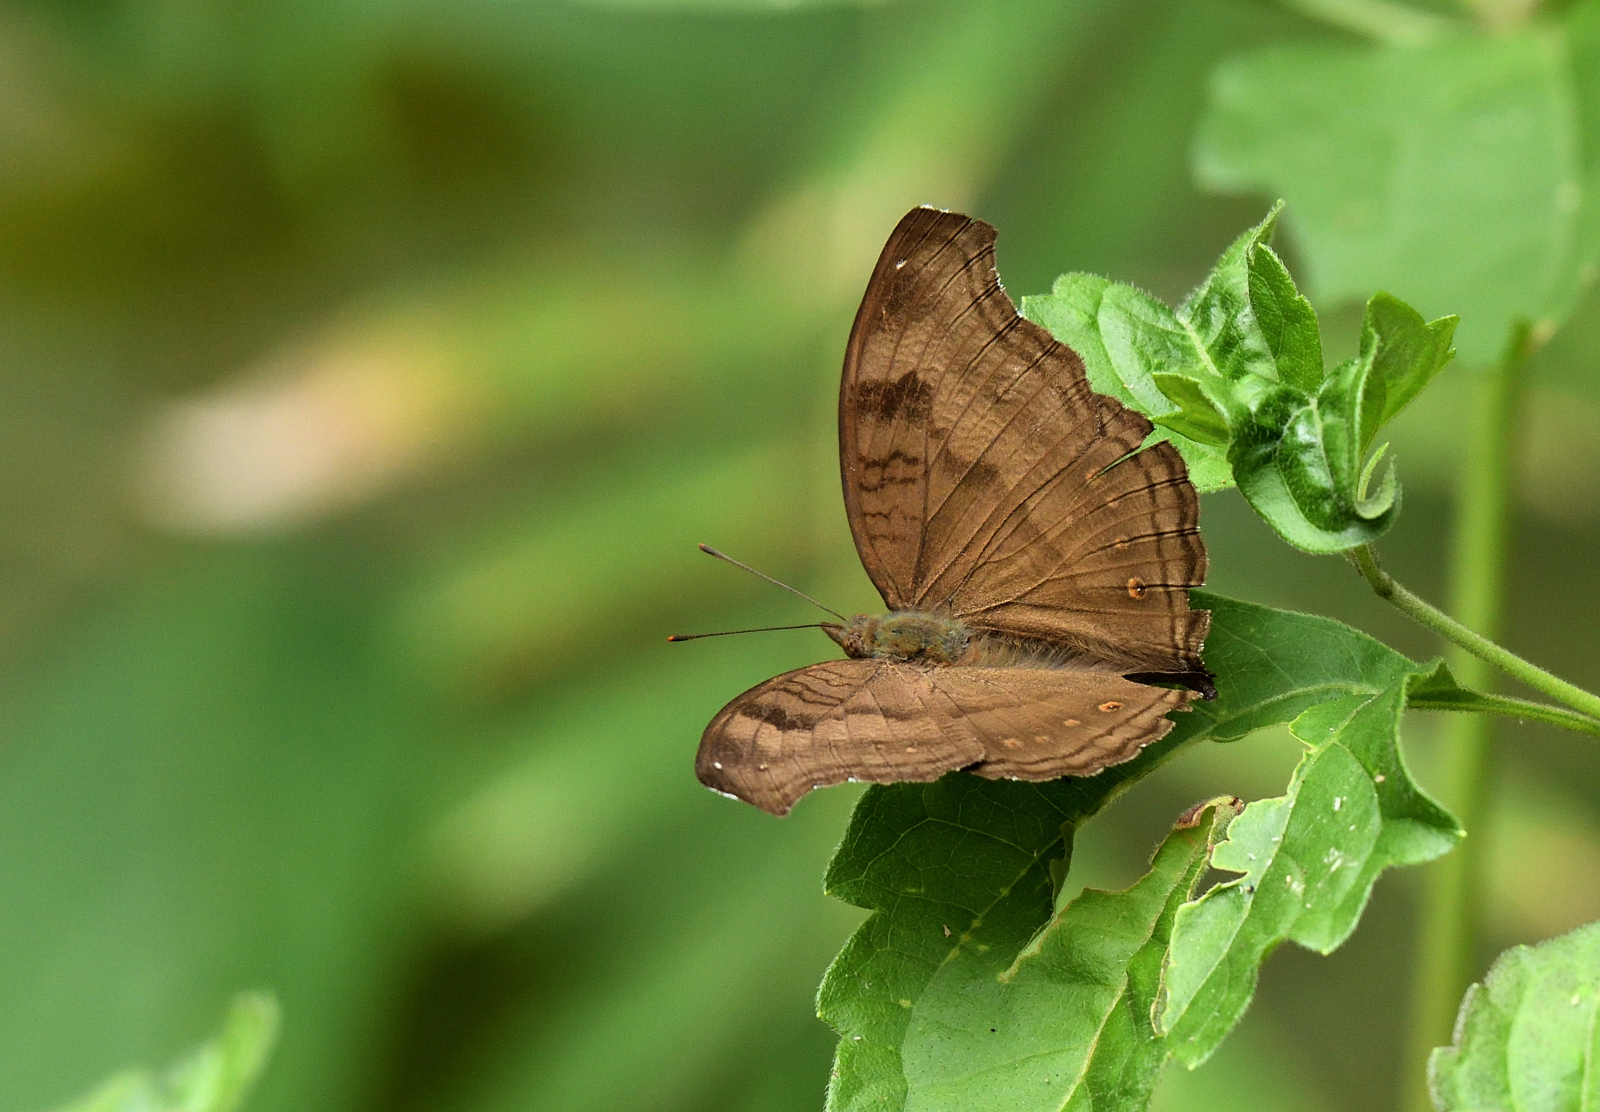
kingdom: Animalia
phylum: Arthropoda
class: Insecta
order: Lepidoptera
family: Nymphalidae
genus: Junonia
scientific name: Junonia iphita
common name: Chocolate pansy
